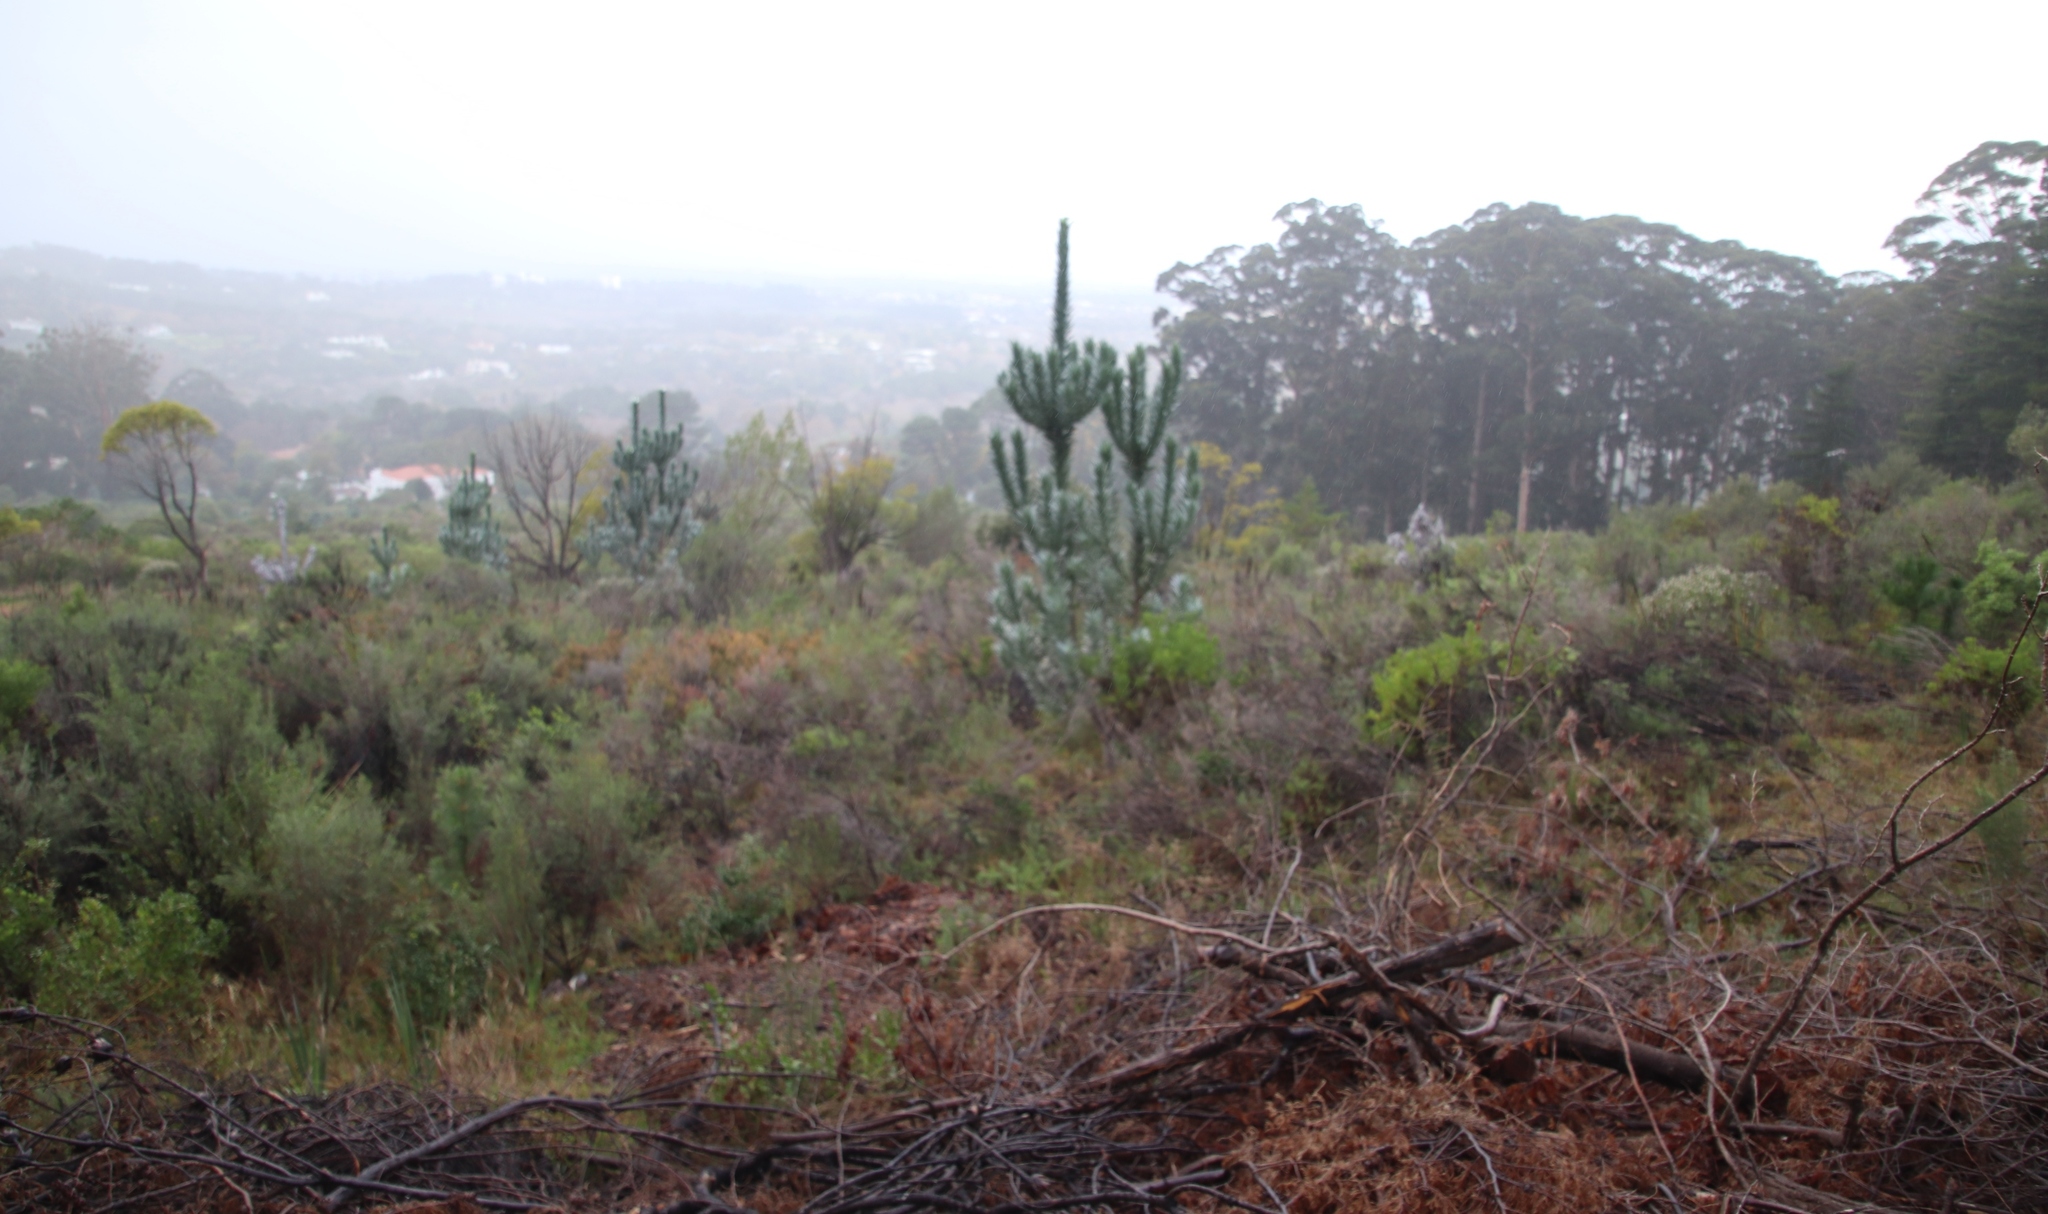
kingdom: Plantae
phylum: Tracheophyta
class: Magnoliopsida
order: Proteales
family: Proteaceae
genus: Leucadendron
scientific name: Leucadendron argenteum
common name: Cape silver tree
